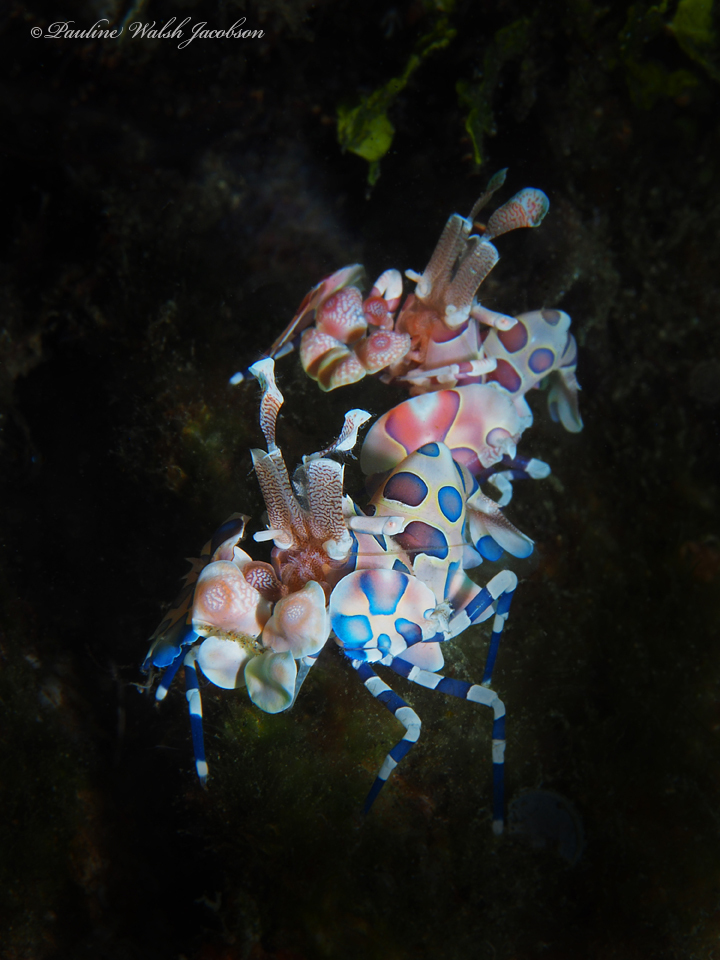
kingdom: Animalia
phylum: Arthropoda
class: Malacostraca
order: Decapoda
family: Palaemonidae
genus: Hymenocera
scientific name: Hymenocera picta
